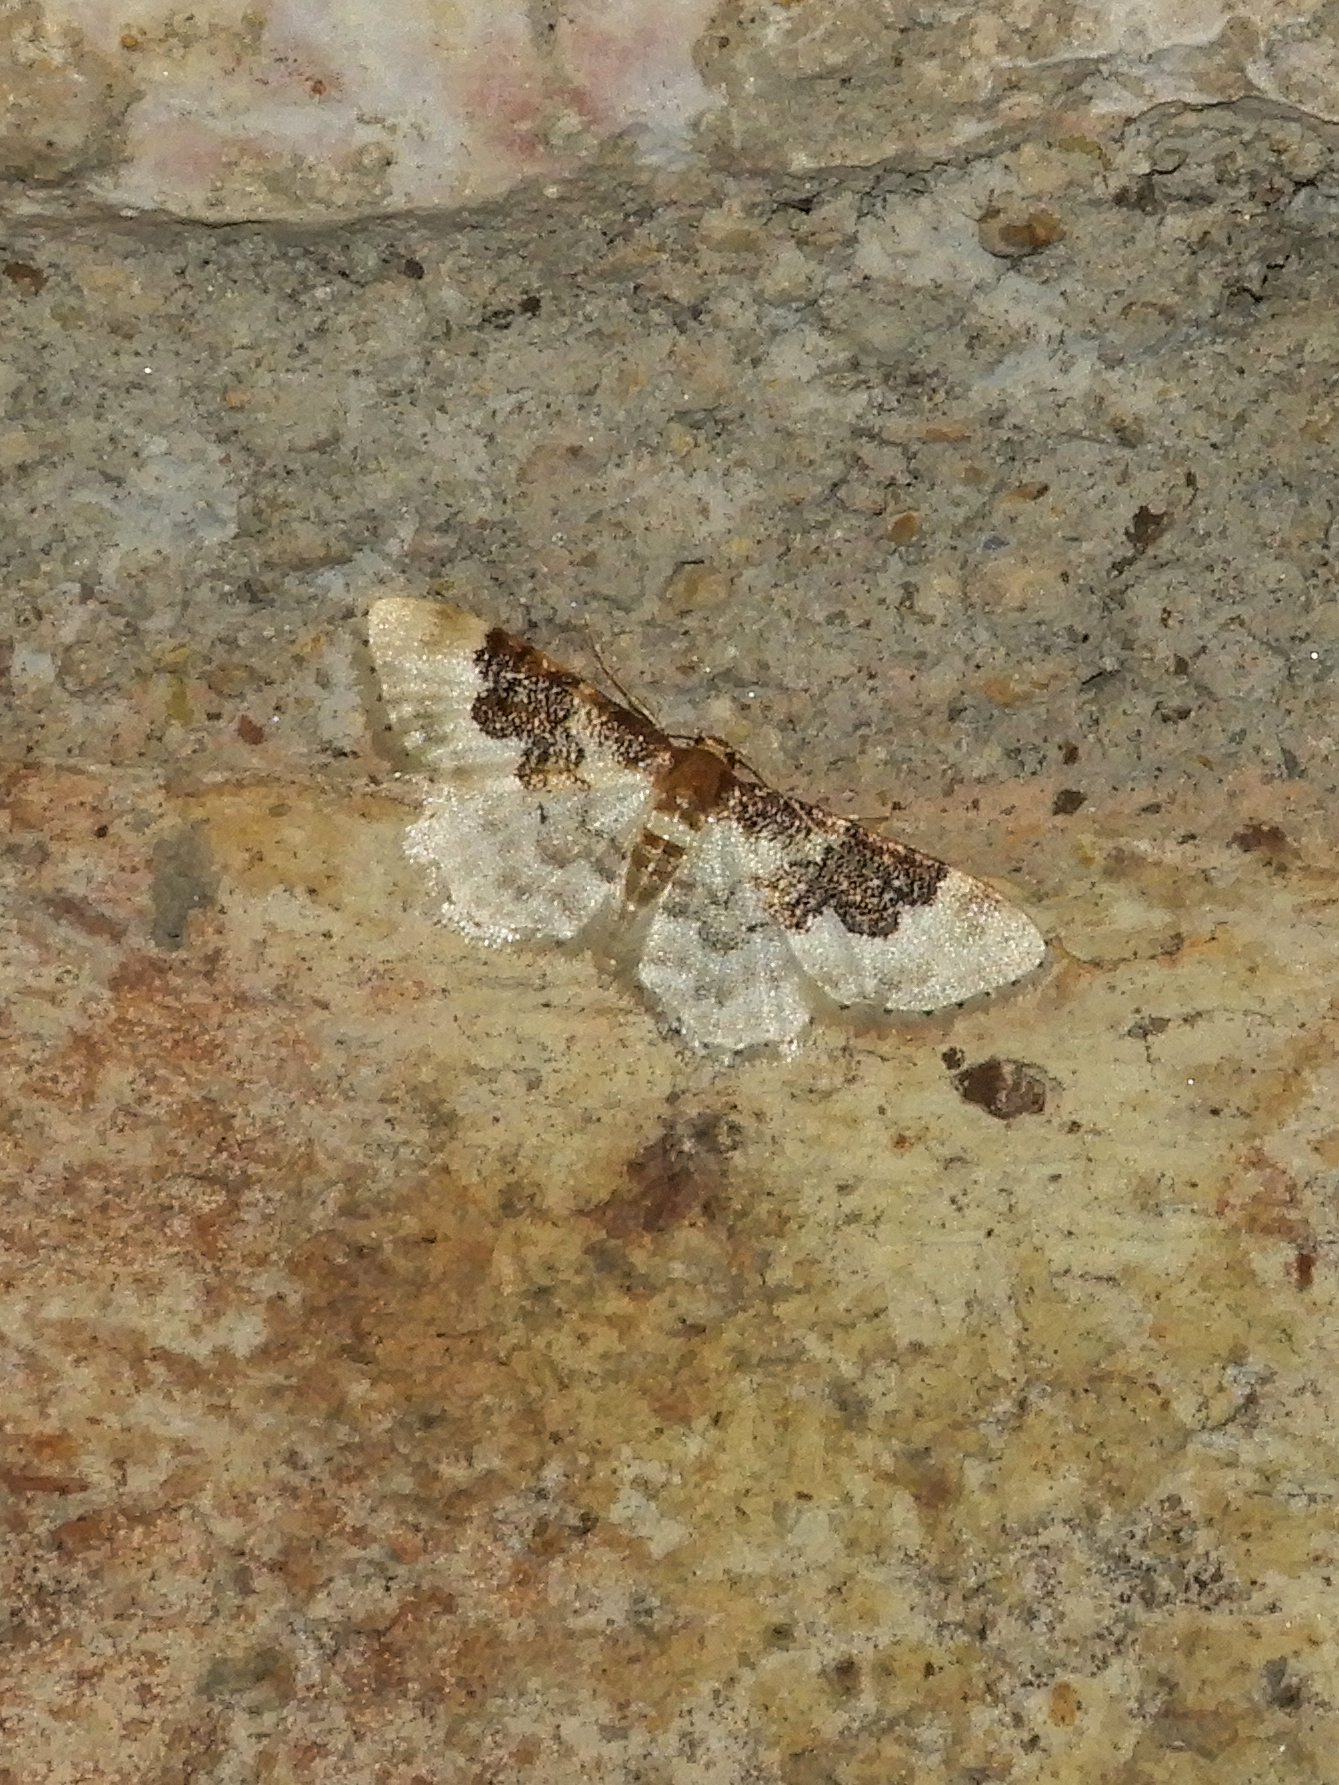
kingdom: Animalia
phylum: Arthropoda
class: Insecta
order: Lepidoptera
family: Geometridae
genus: Idaea
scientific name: Idaea rusticata
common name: Least carpet
